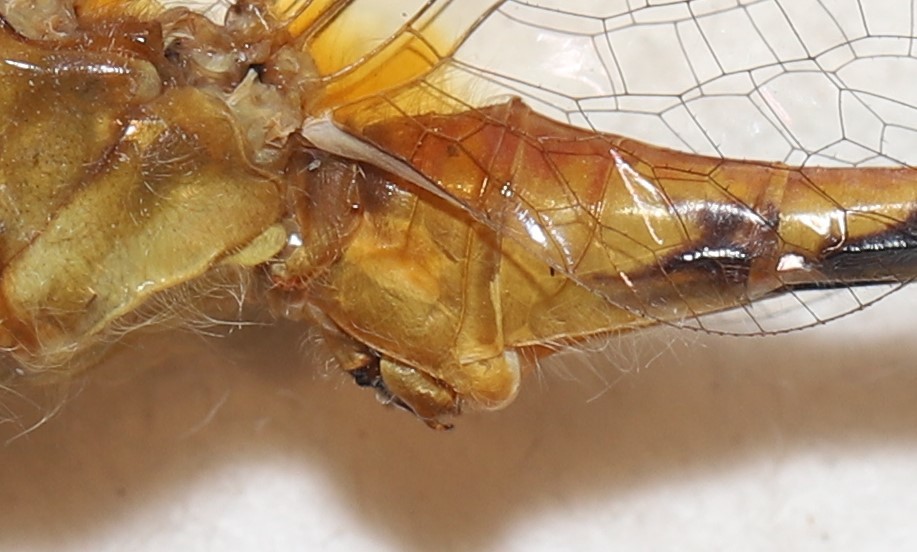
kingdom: Animalia
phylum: Arthropoda
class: Insecta
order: Odonata
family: Libellulidae
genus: Sympetrum
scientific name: Sympetrum obtrusum
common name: White-faced meadowhawk
